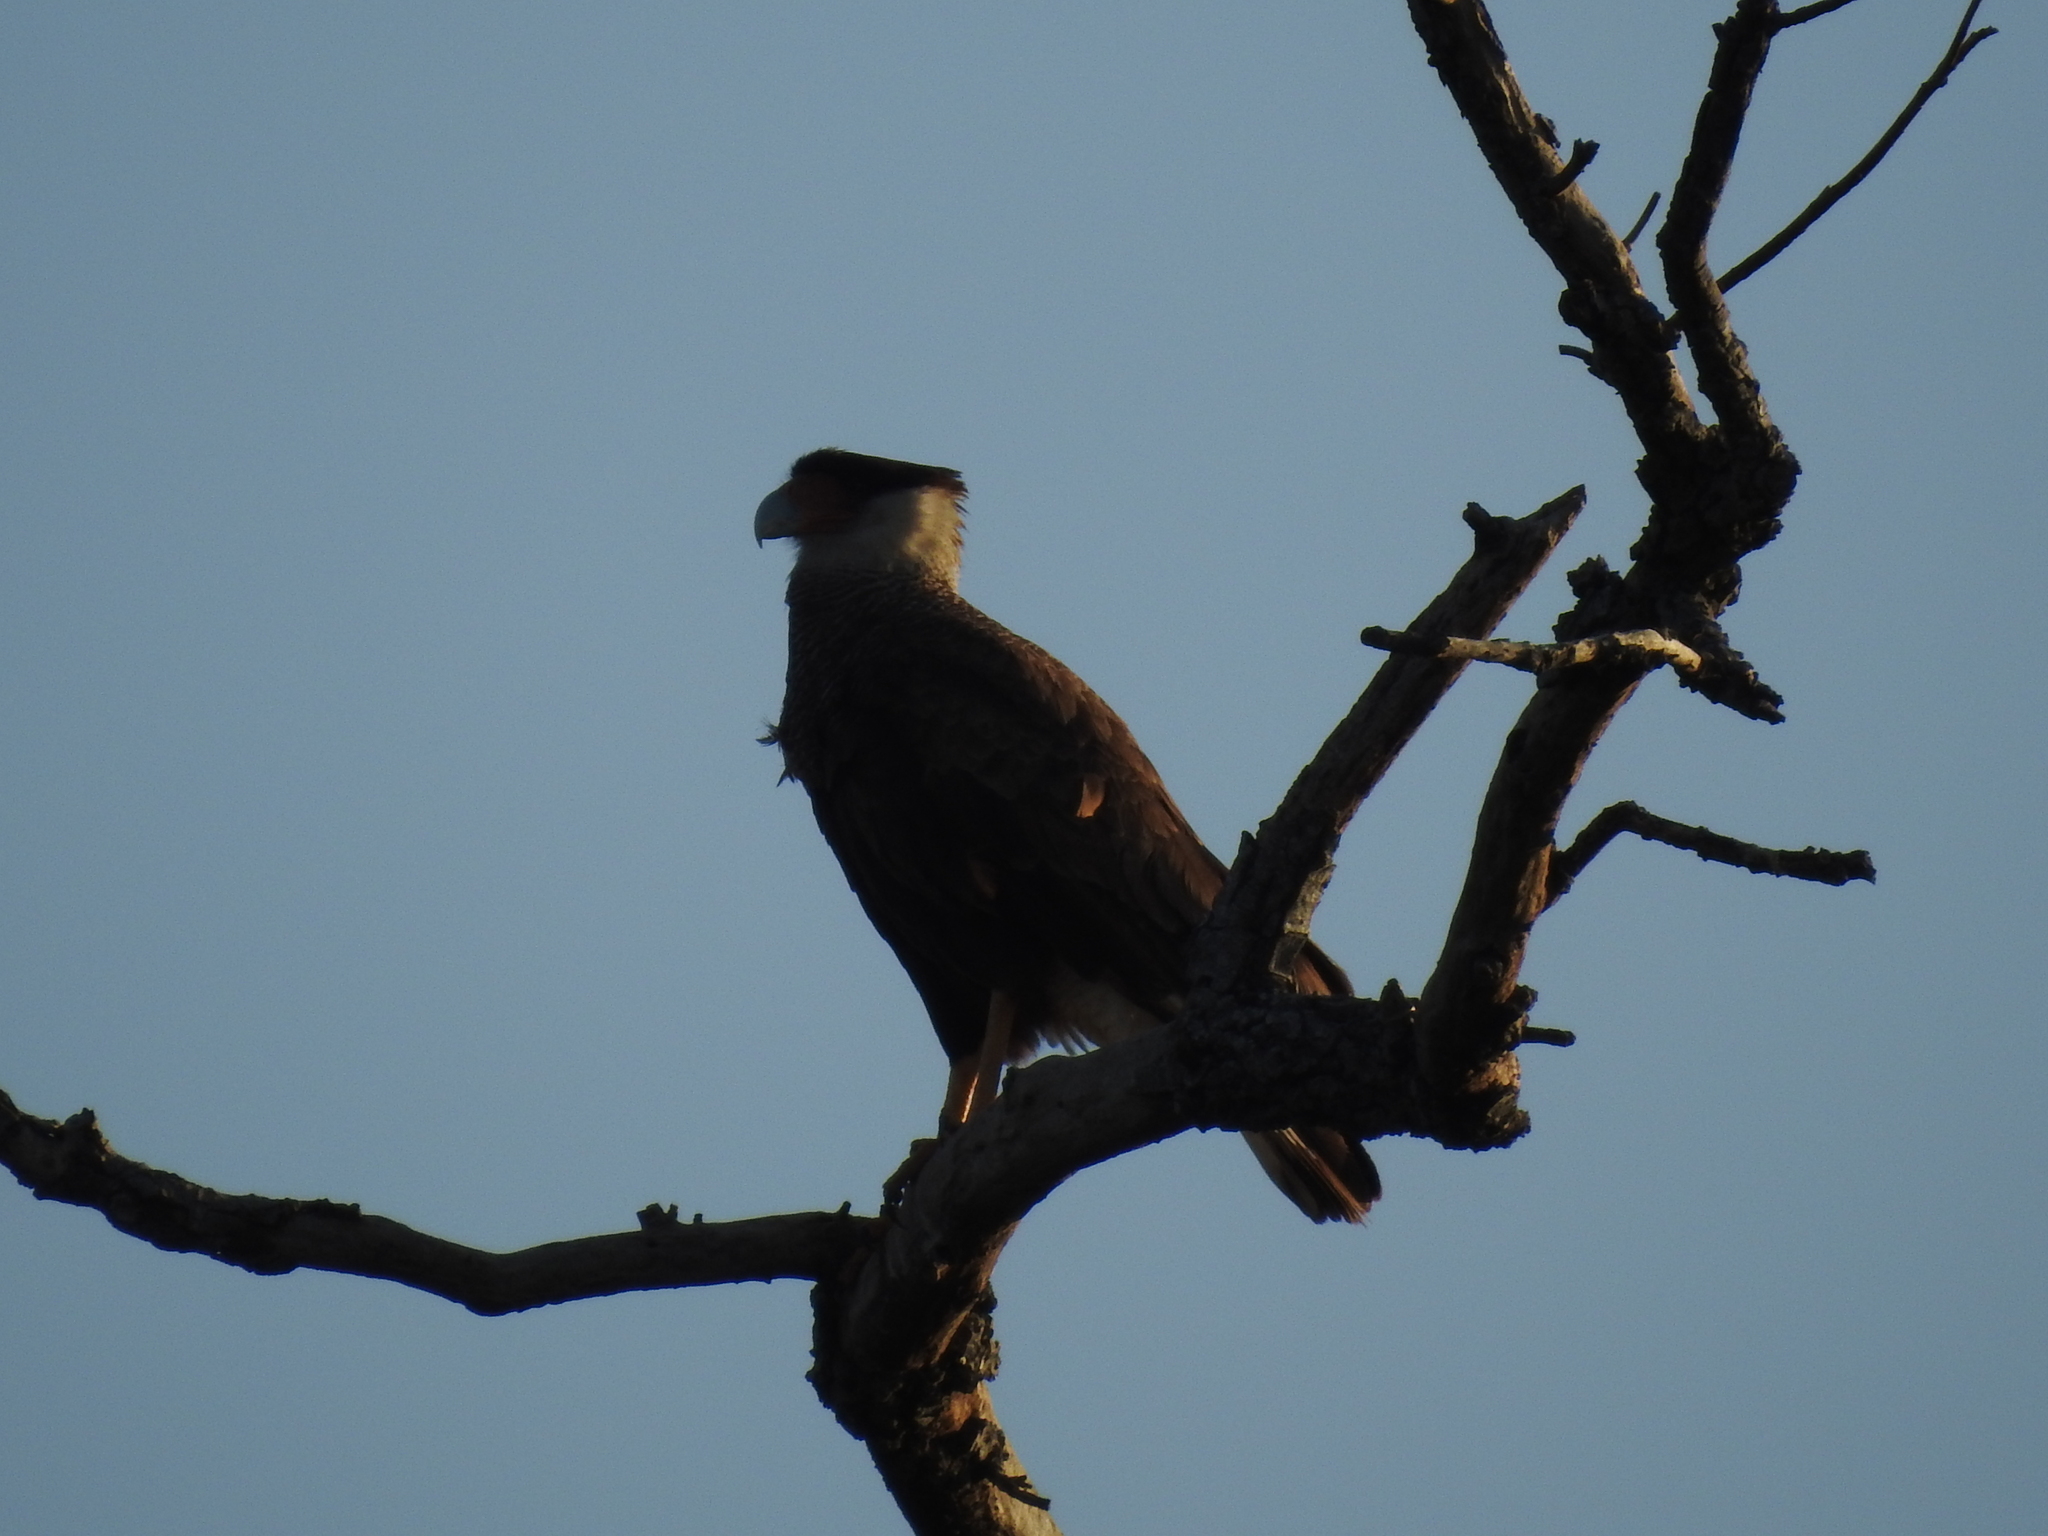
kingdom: Animalia
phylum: Chordata
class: Aves
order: Falconiformes
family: Falconidae
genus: Caracara
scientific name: Caracara plancus
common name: Southern caracara
